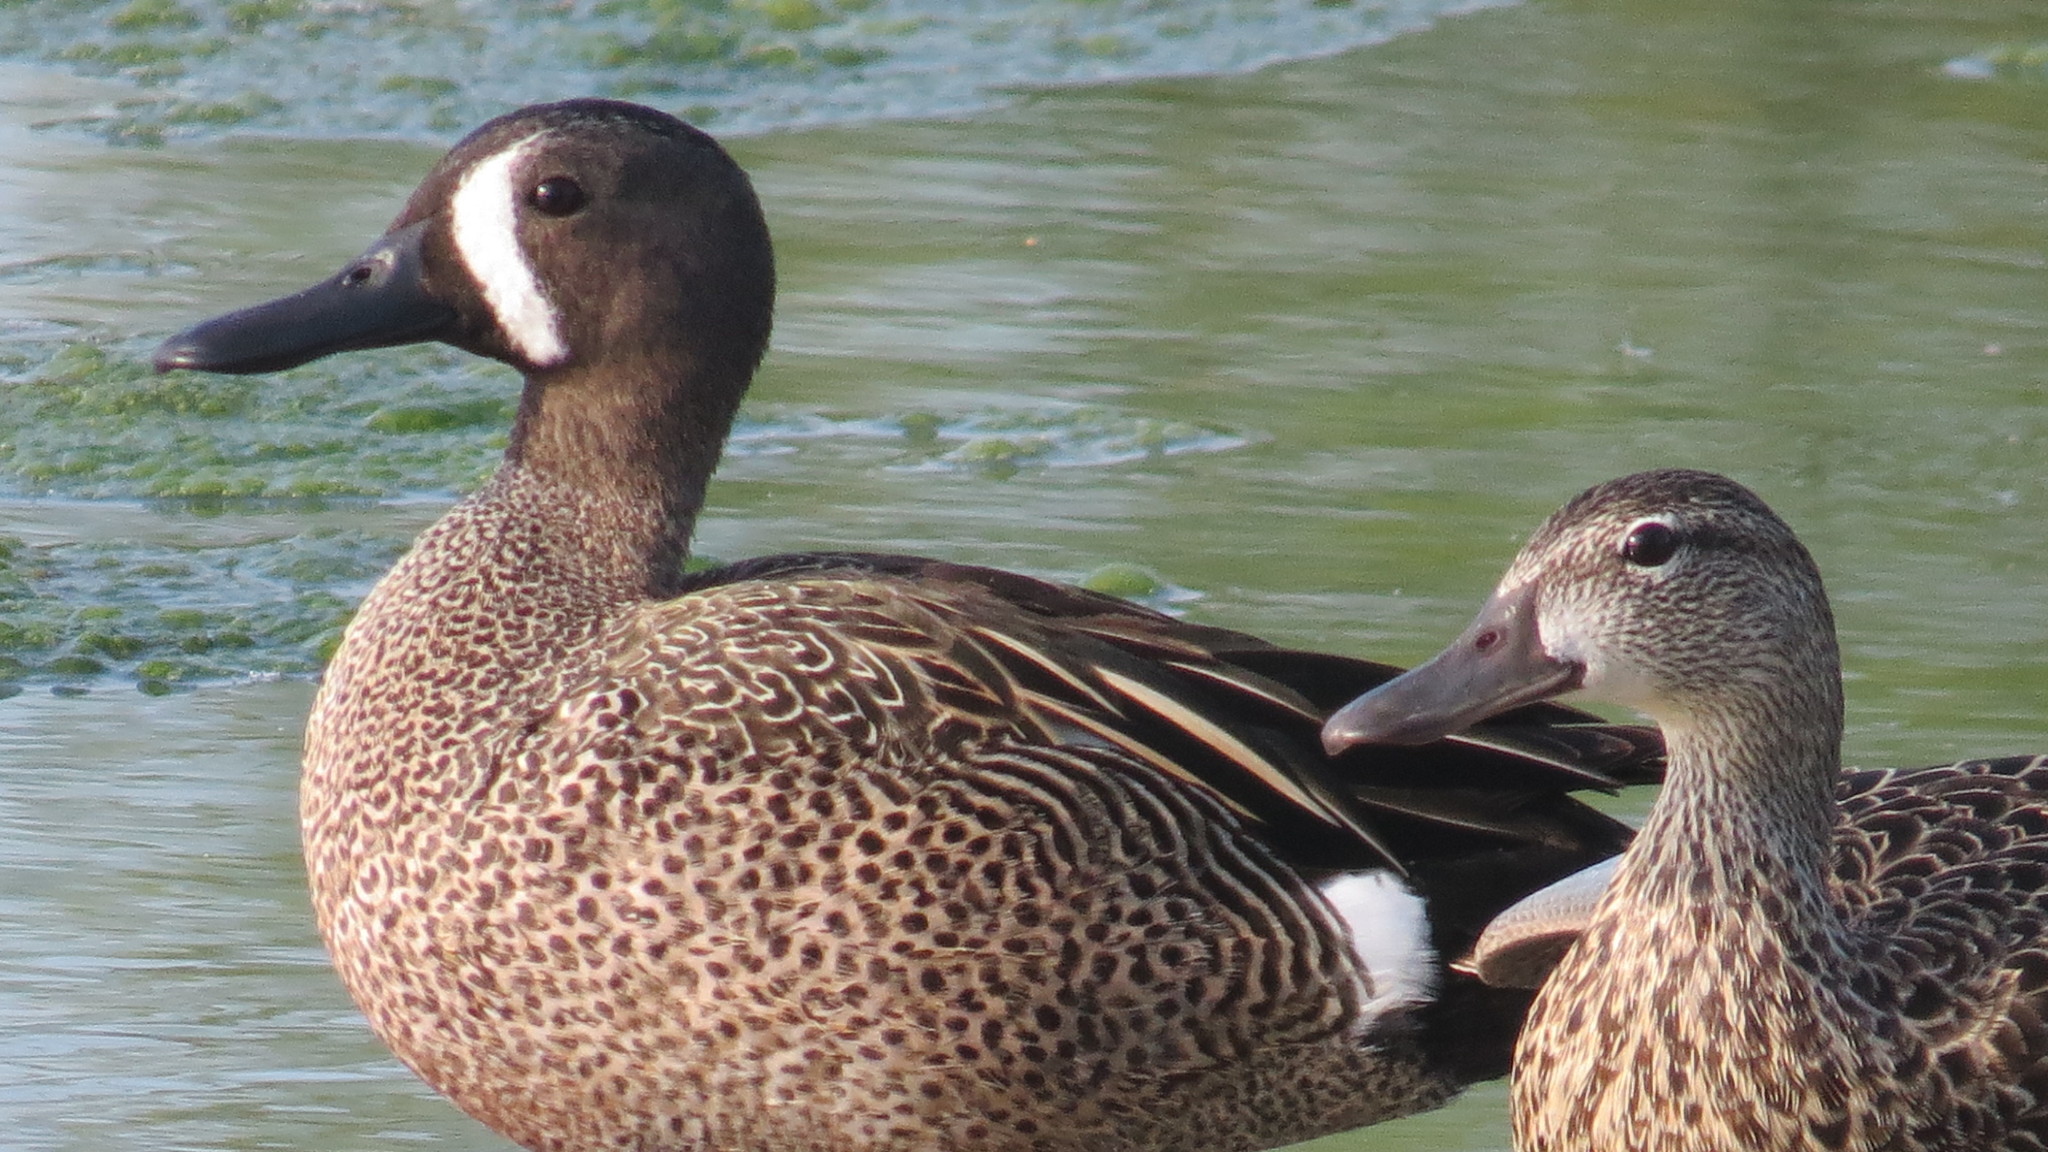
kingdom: Animalia
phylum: Chordata
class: Aves
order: Anseriformes
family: Anatidae
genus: Spatula
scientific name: Spatula discors
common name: Blue-winged teal
